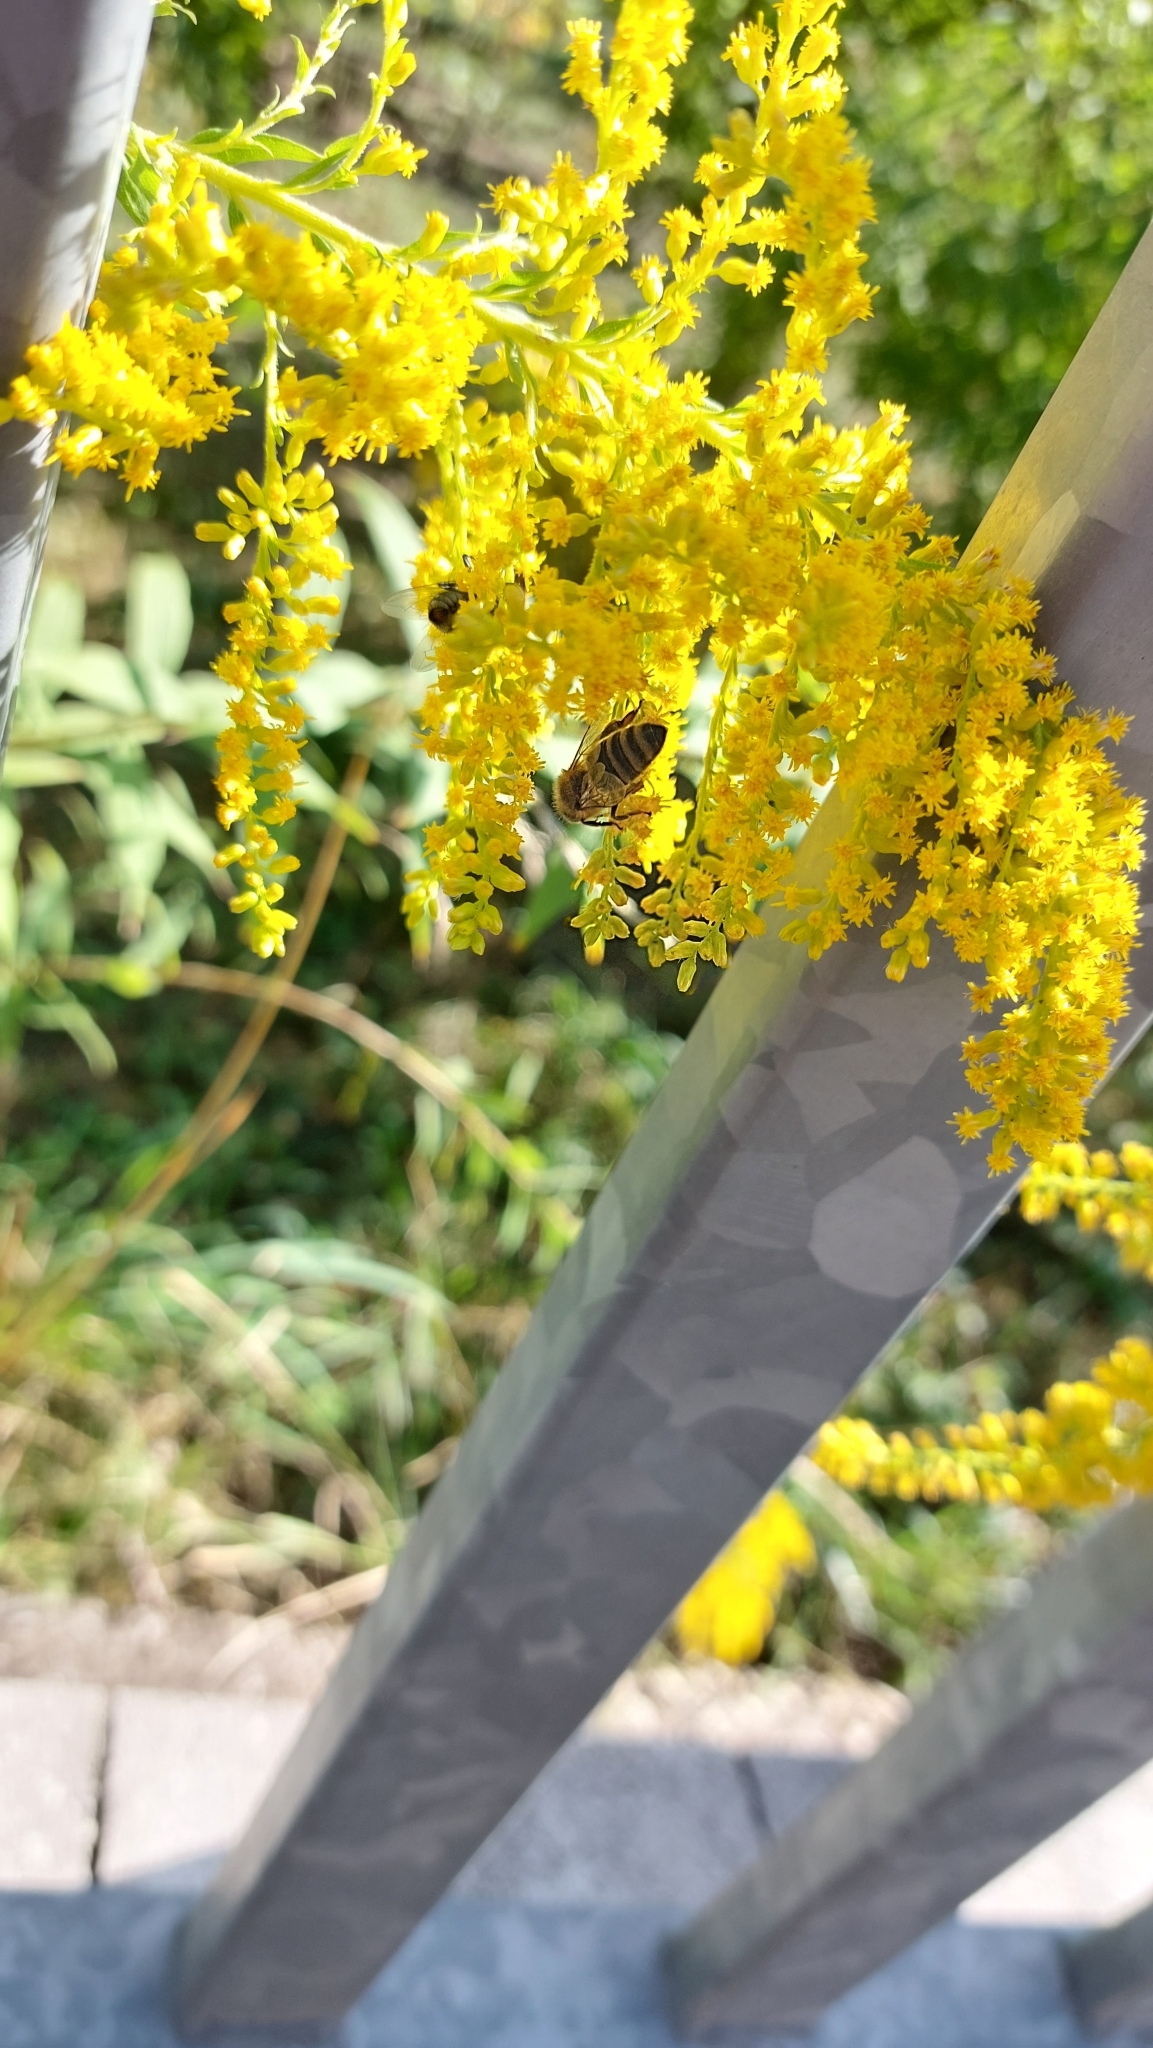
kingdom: Animalia
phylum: Arthropoda
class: Insecta
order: Hymenoptera
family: Apidae
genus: Apis
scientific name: Apis mellifera
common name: Honey bee
